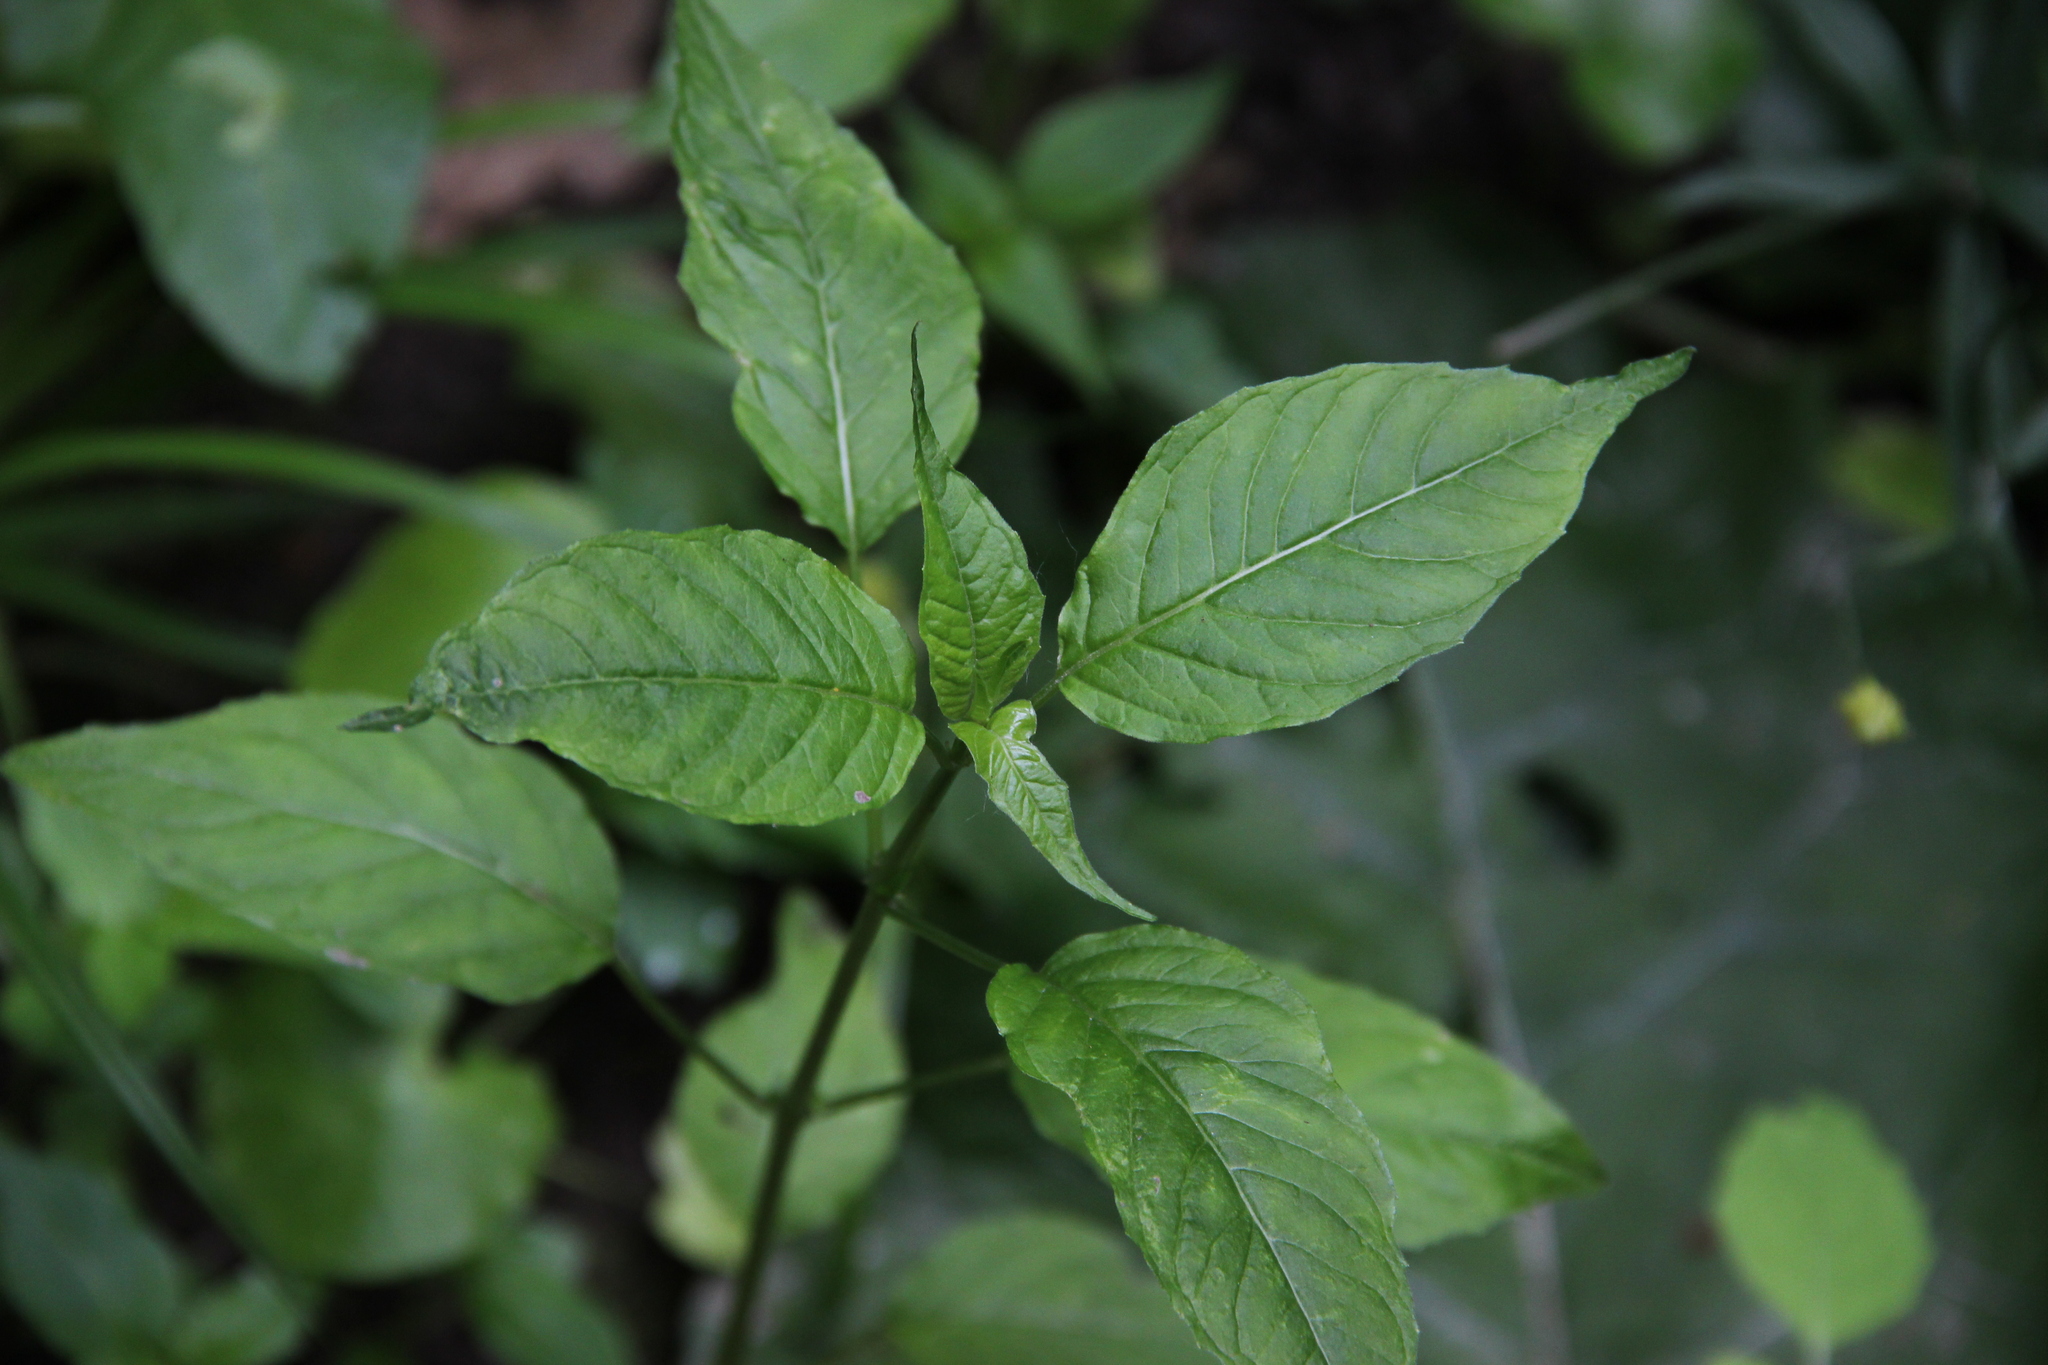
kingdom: Plantae
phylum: Tracheophyta
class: Magnoliopsida
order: Myrtales
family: Onagraceae
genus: Circaea
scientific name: Circaea lutetiana
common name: Enchanter's-nightshade
